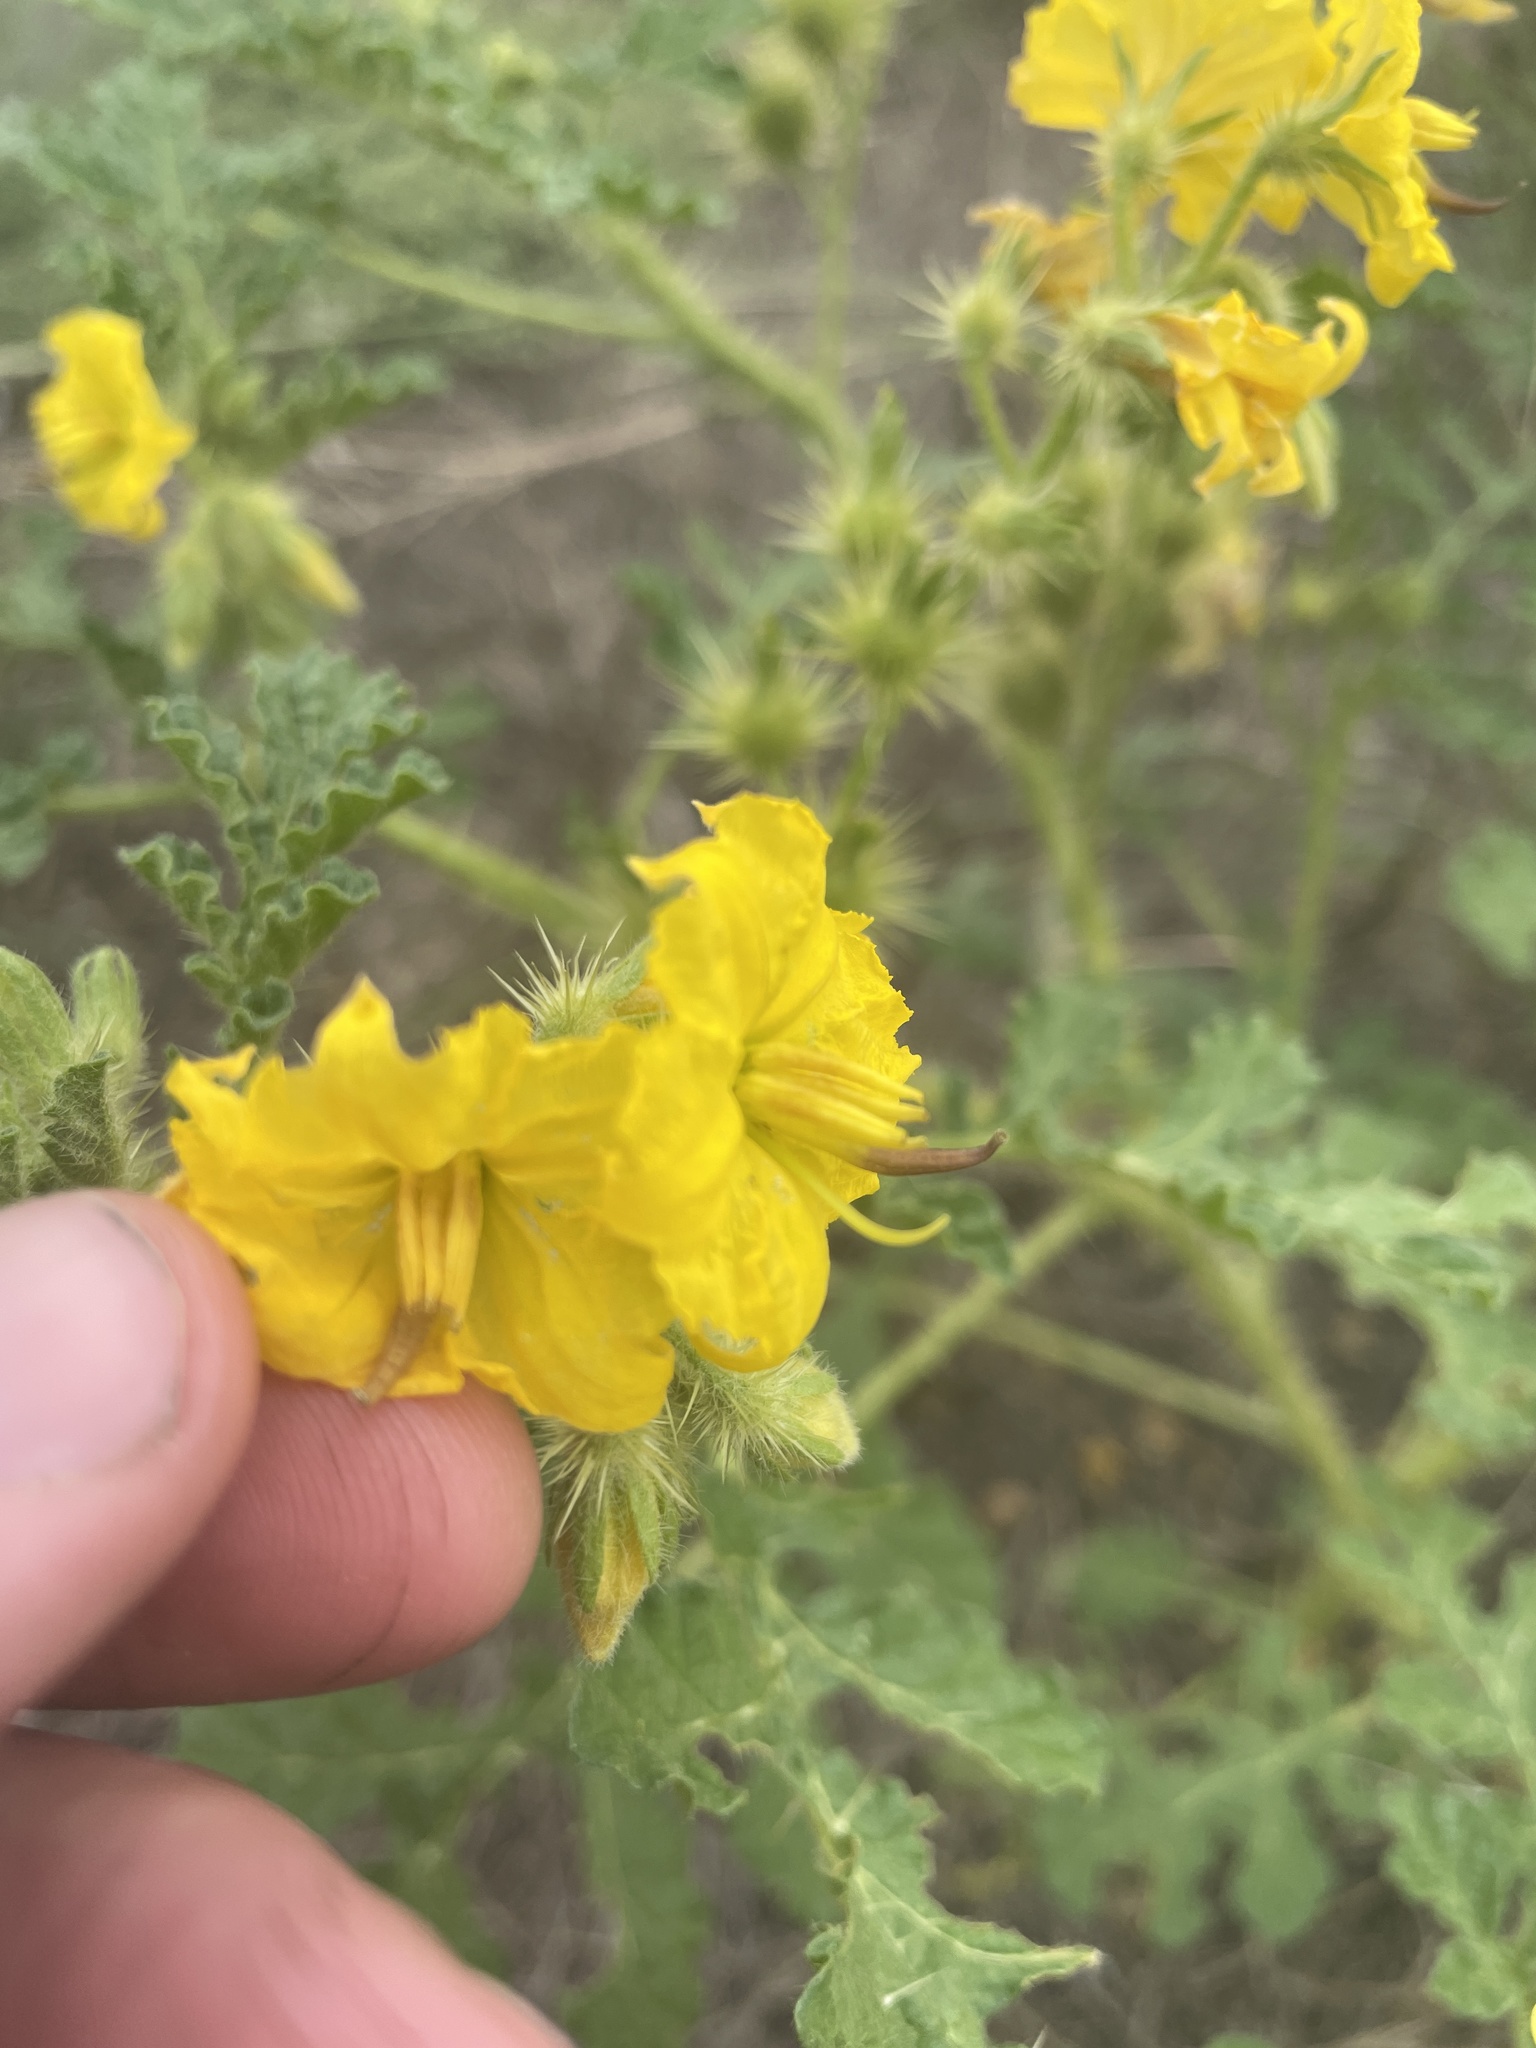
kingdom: Plantae
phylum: Tracheophyta
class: Magnoliopsida
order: Solanales
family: Solanaceae
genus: Solanum
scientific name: Solanum angustifolium
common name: Buffalobur nightshade
